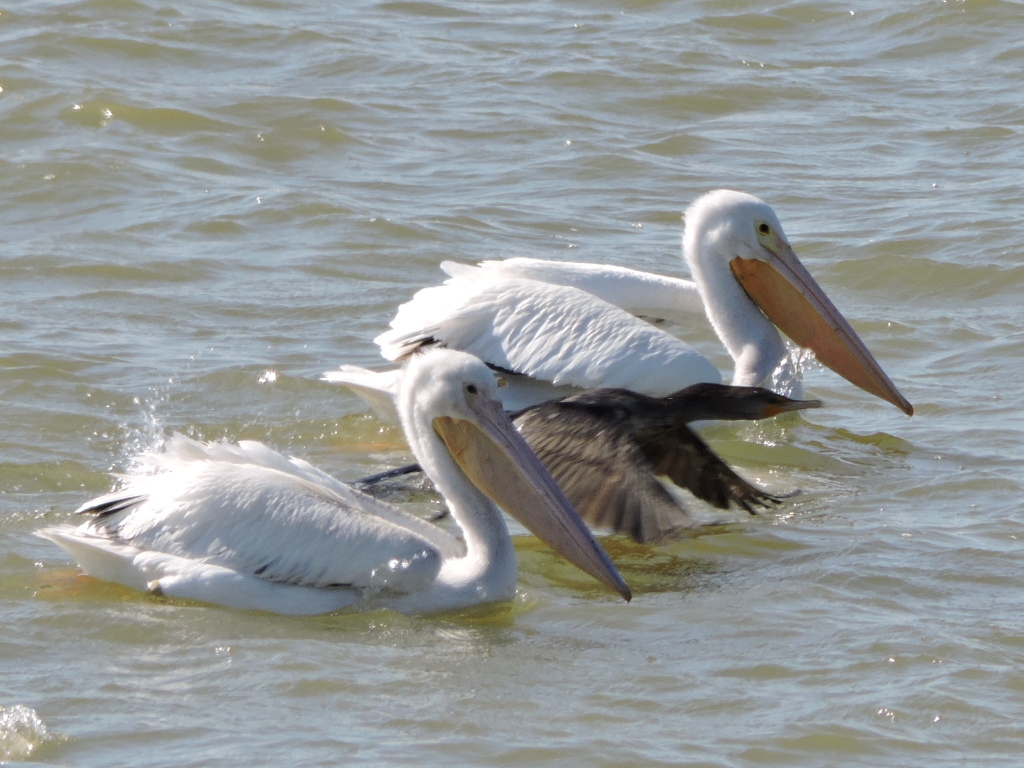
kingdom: Animalia
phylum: Chordata
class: Aves
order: Pelecaniformes
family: Pelecanidae
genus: Pelecanus
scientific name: Pelecanus erythrorhynchos
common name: American white pelican
